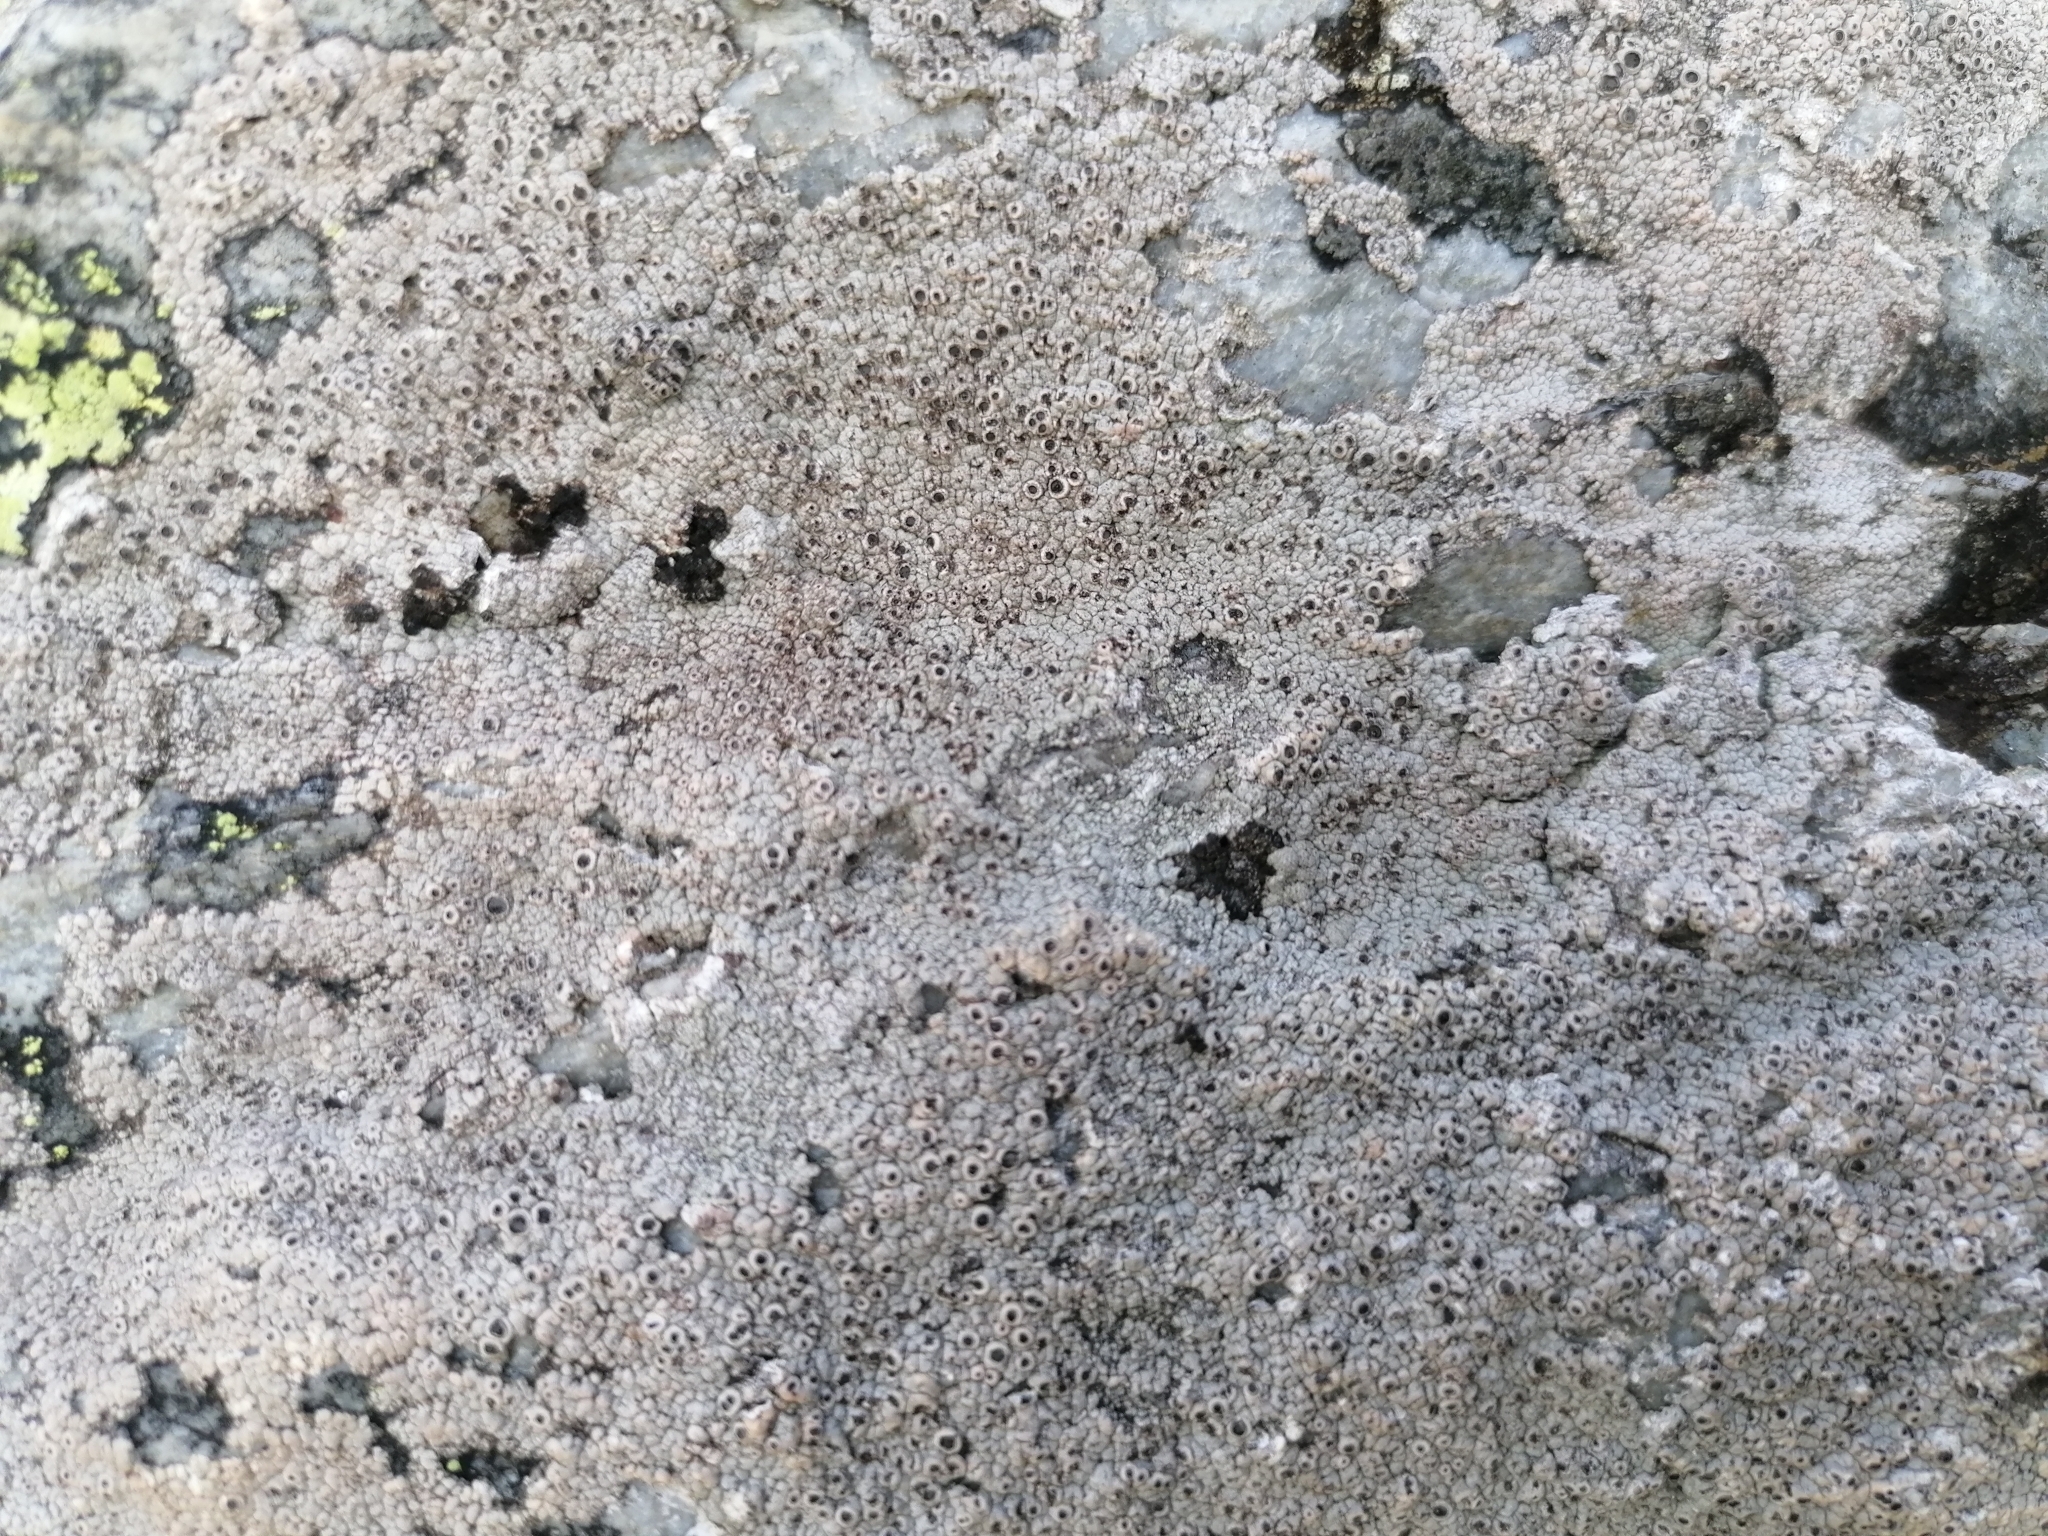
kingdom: Fungi
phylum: Ascomycota
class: Lecanoromycetes
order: Ostropales
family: Graphidaceae
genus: Diploschistes
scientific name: Diploschistes scruposus
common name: Crater lichen
